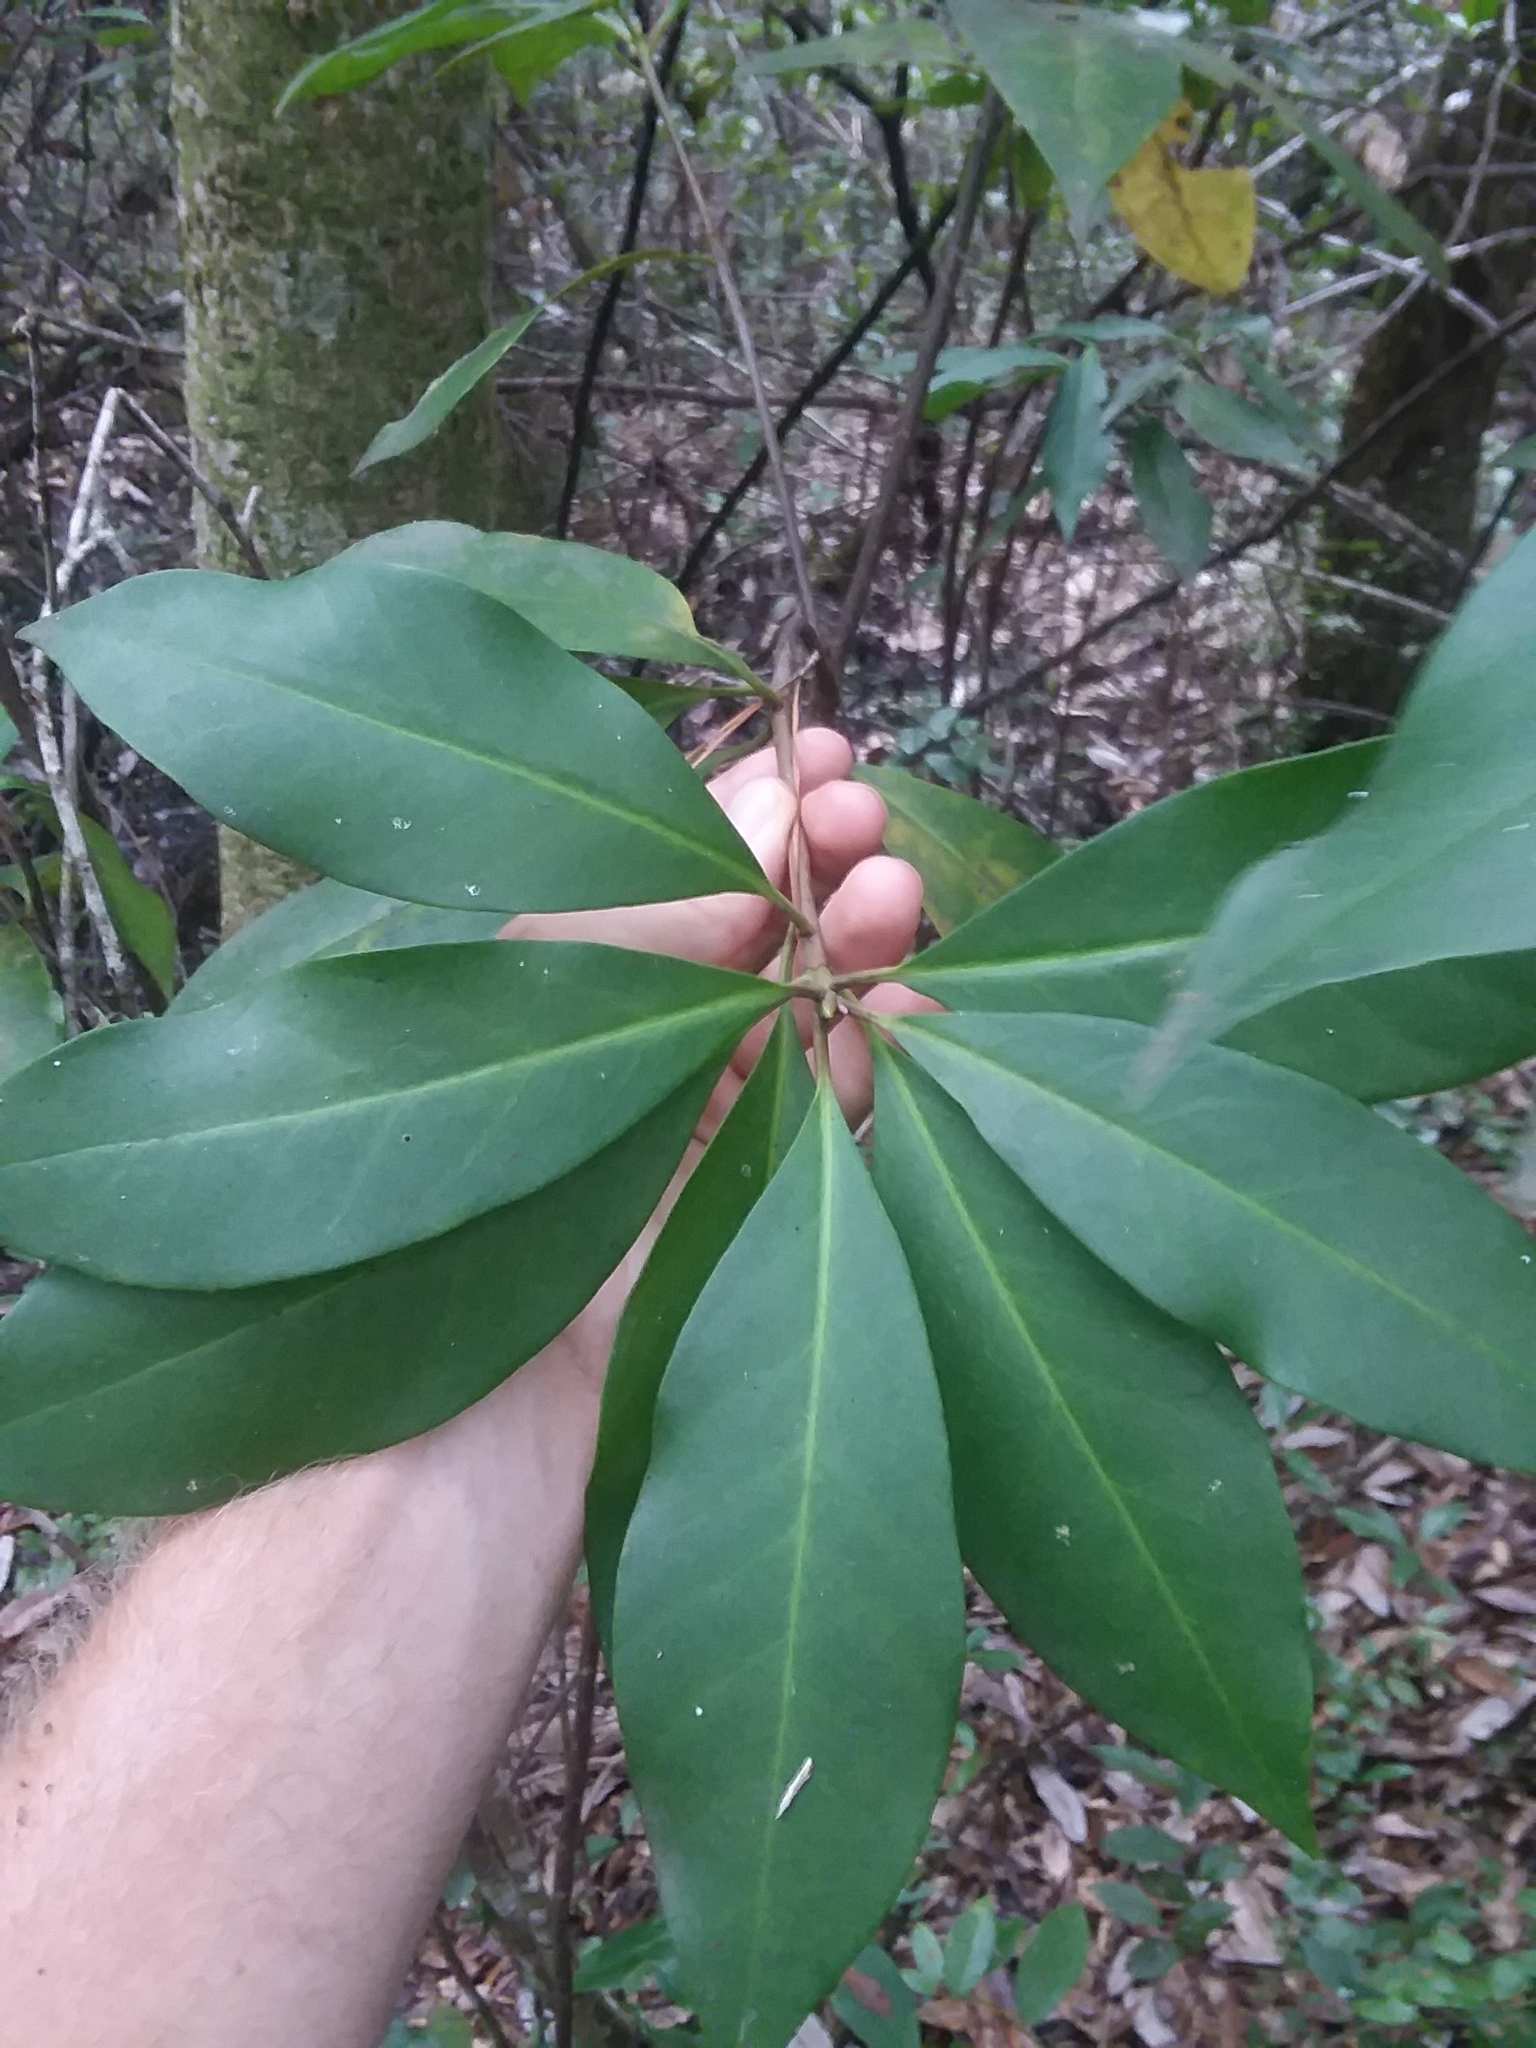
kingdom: Plantae
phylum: Tracheophyta
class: Magnoliopsida
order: Austrobaileyales
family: Schisandraceae
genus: Illicium
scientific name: Illicium floridanum
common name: Florida anisetree
